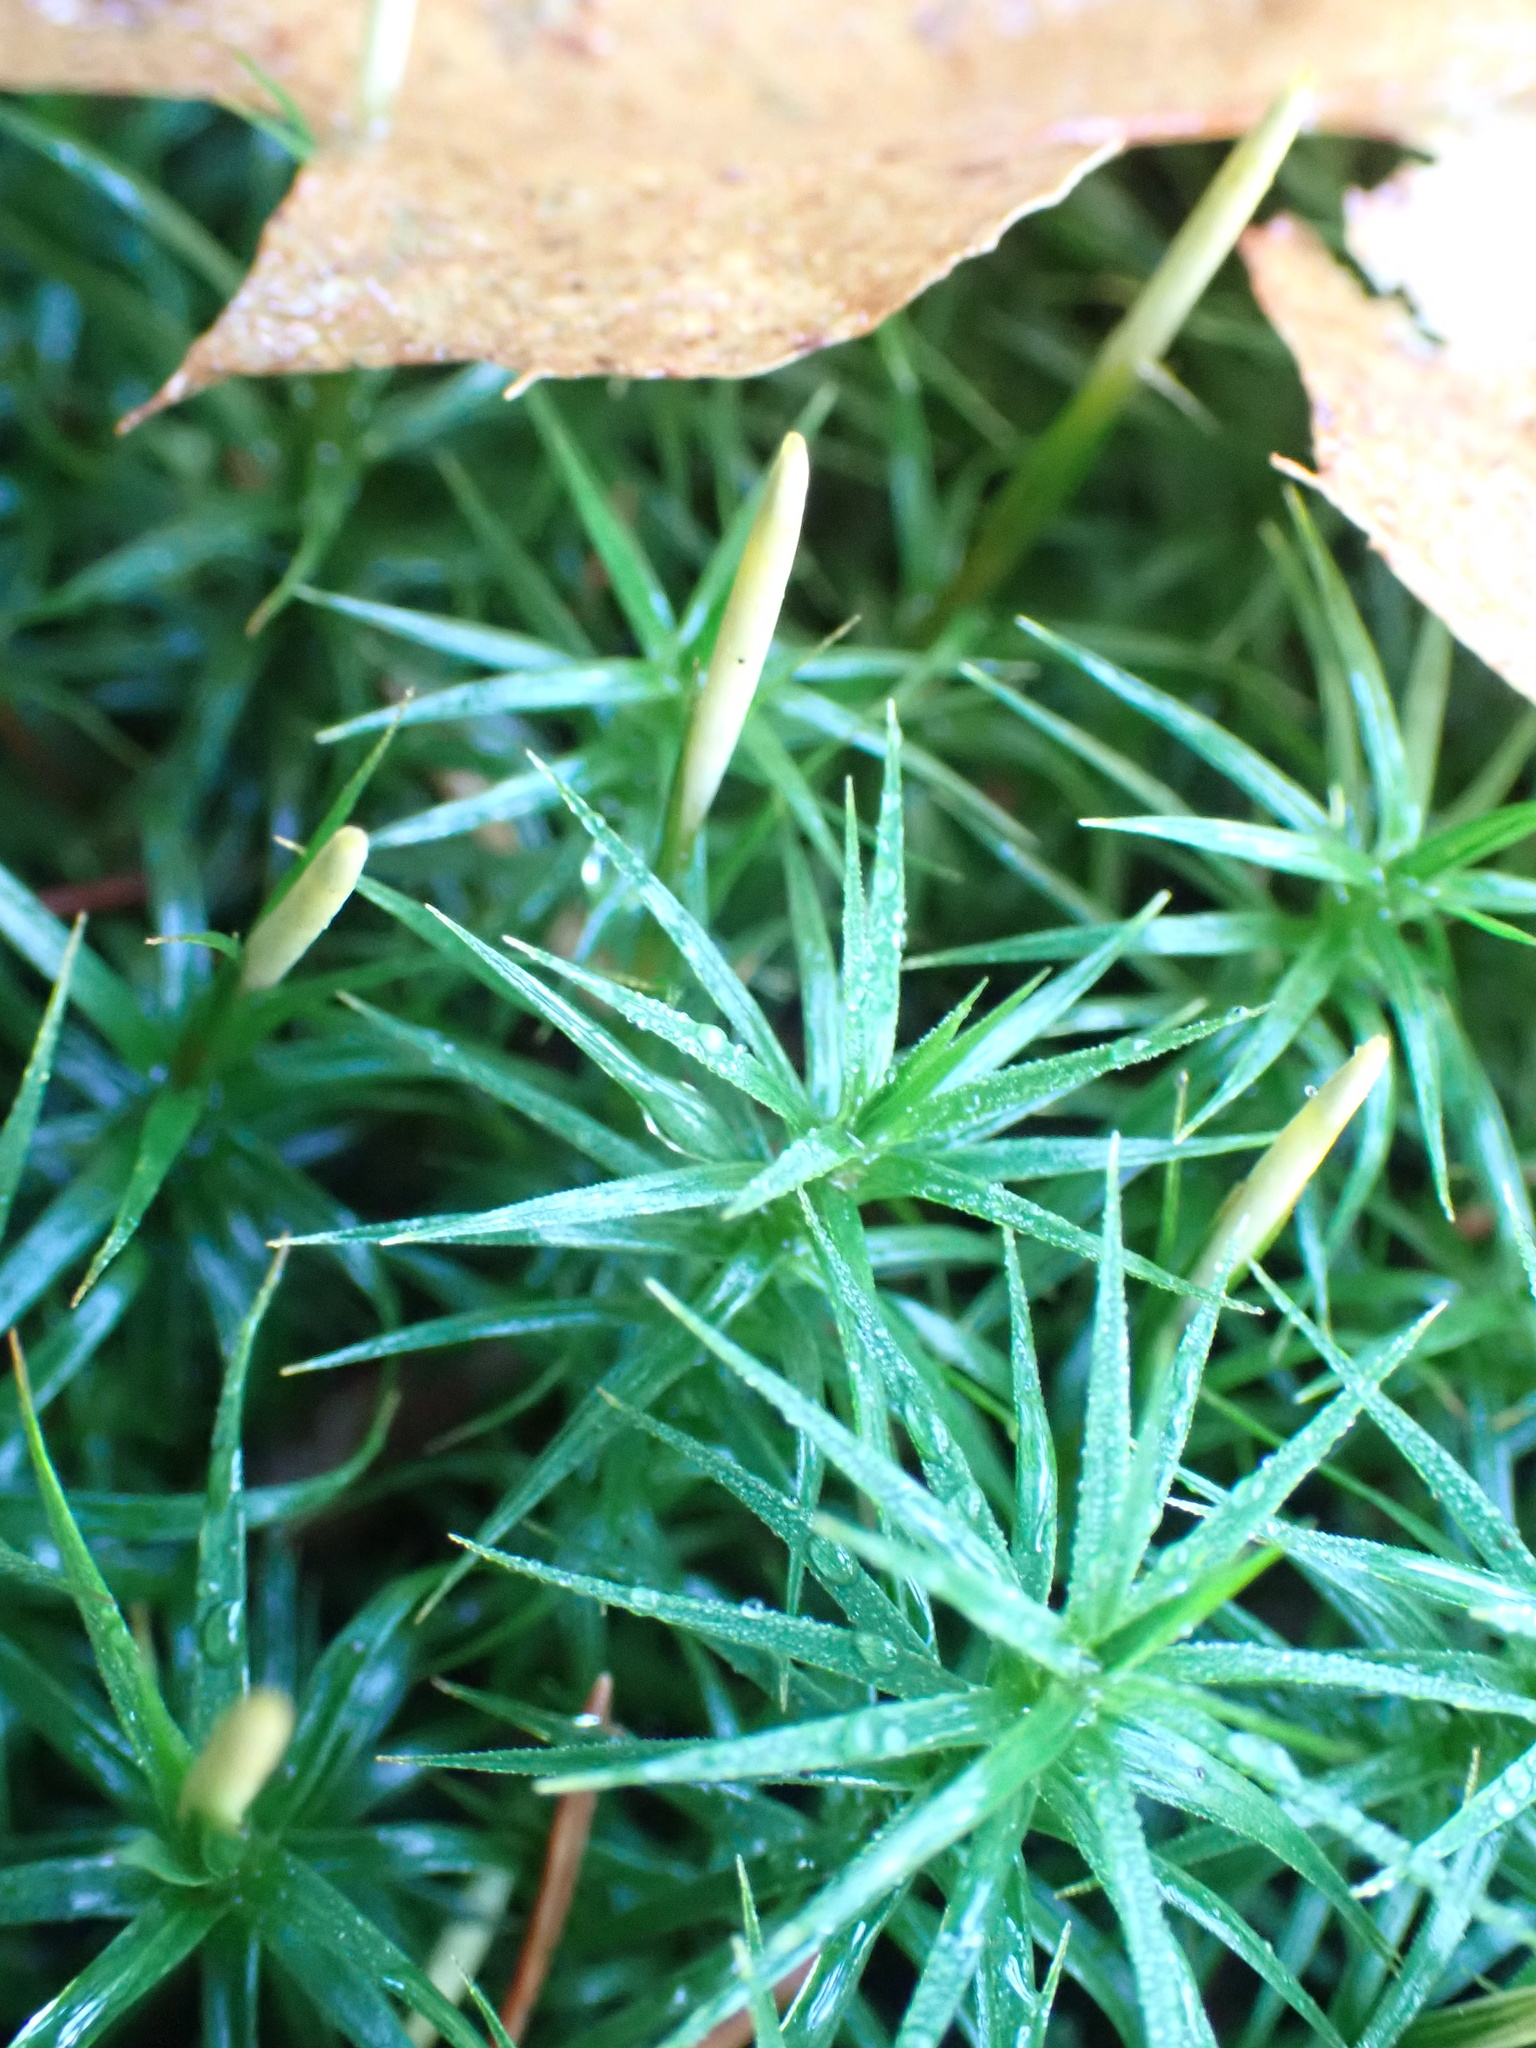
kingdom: Plantae
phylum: Bryophyta
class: Polytrichopsida
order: Polytrichales
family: Polytrichaceae
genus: Polytrichum
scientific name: Polytrichum formosum
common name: Bank haircap moss
